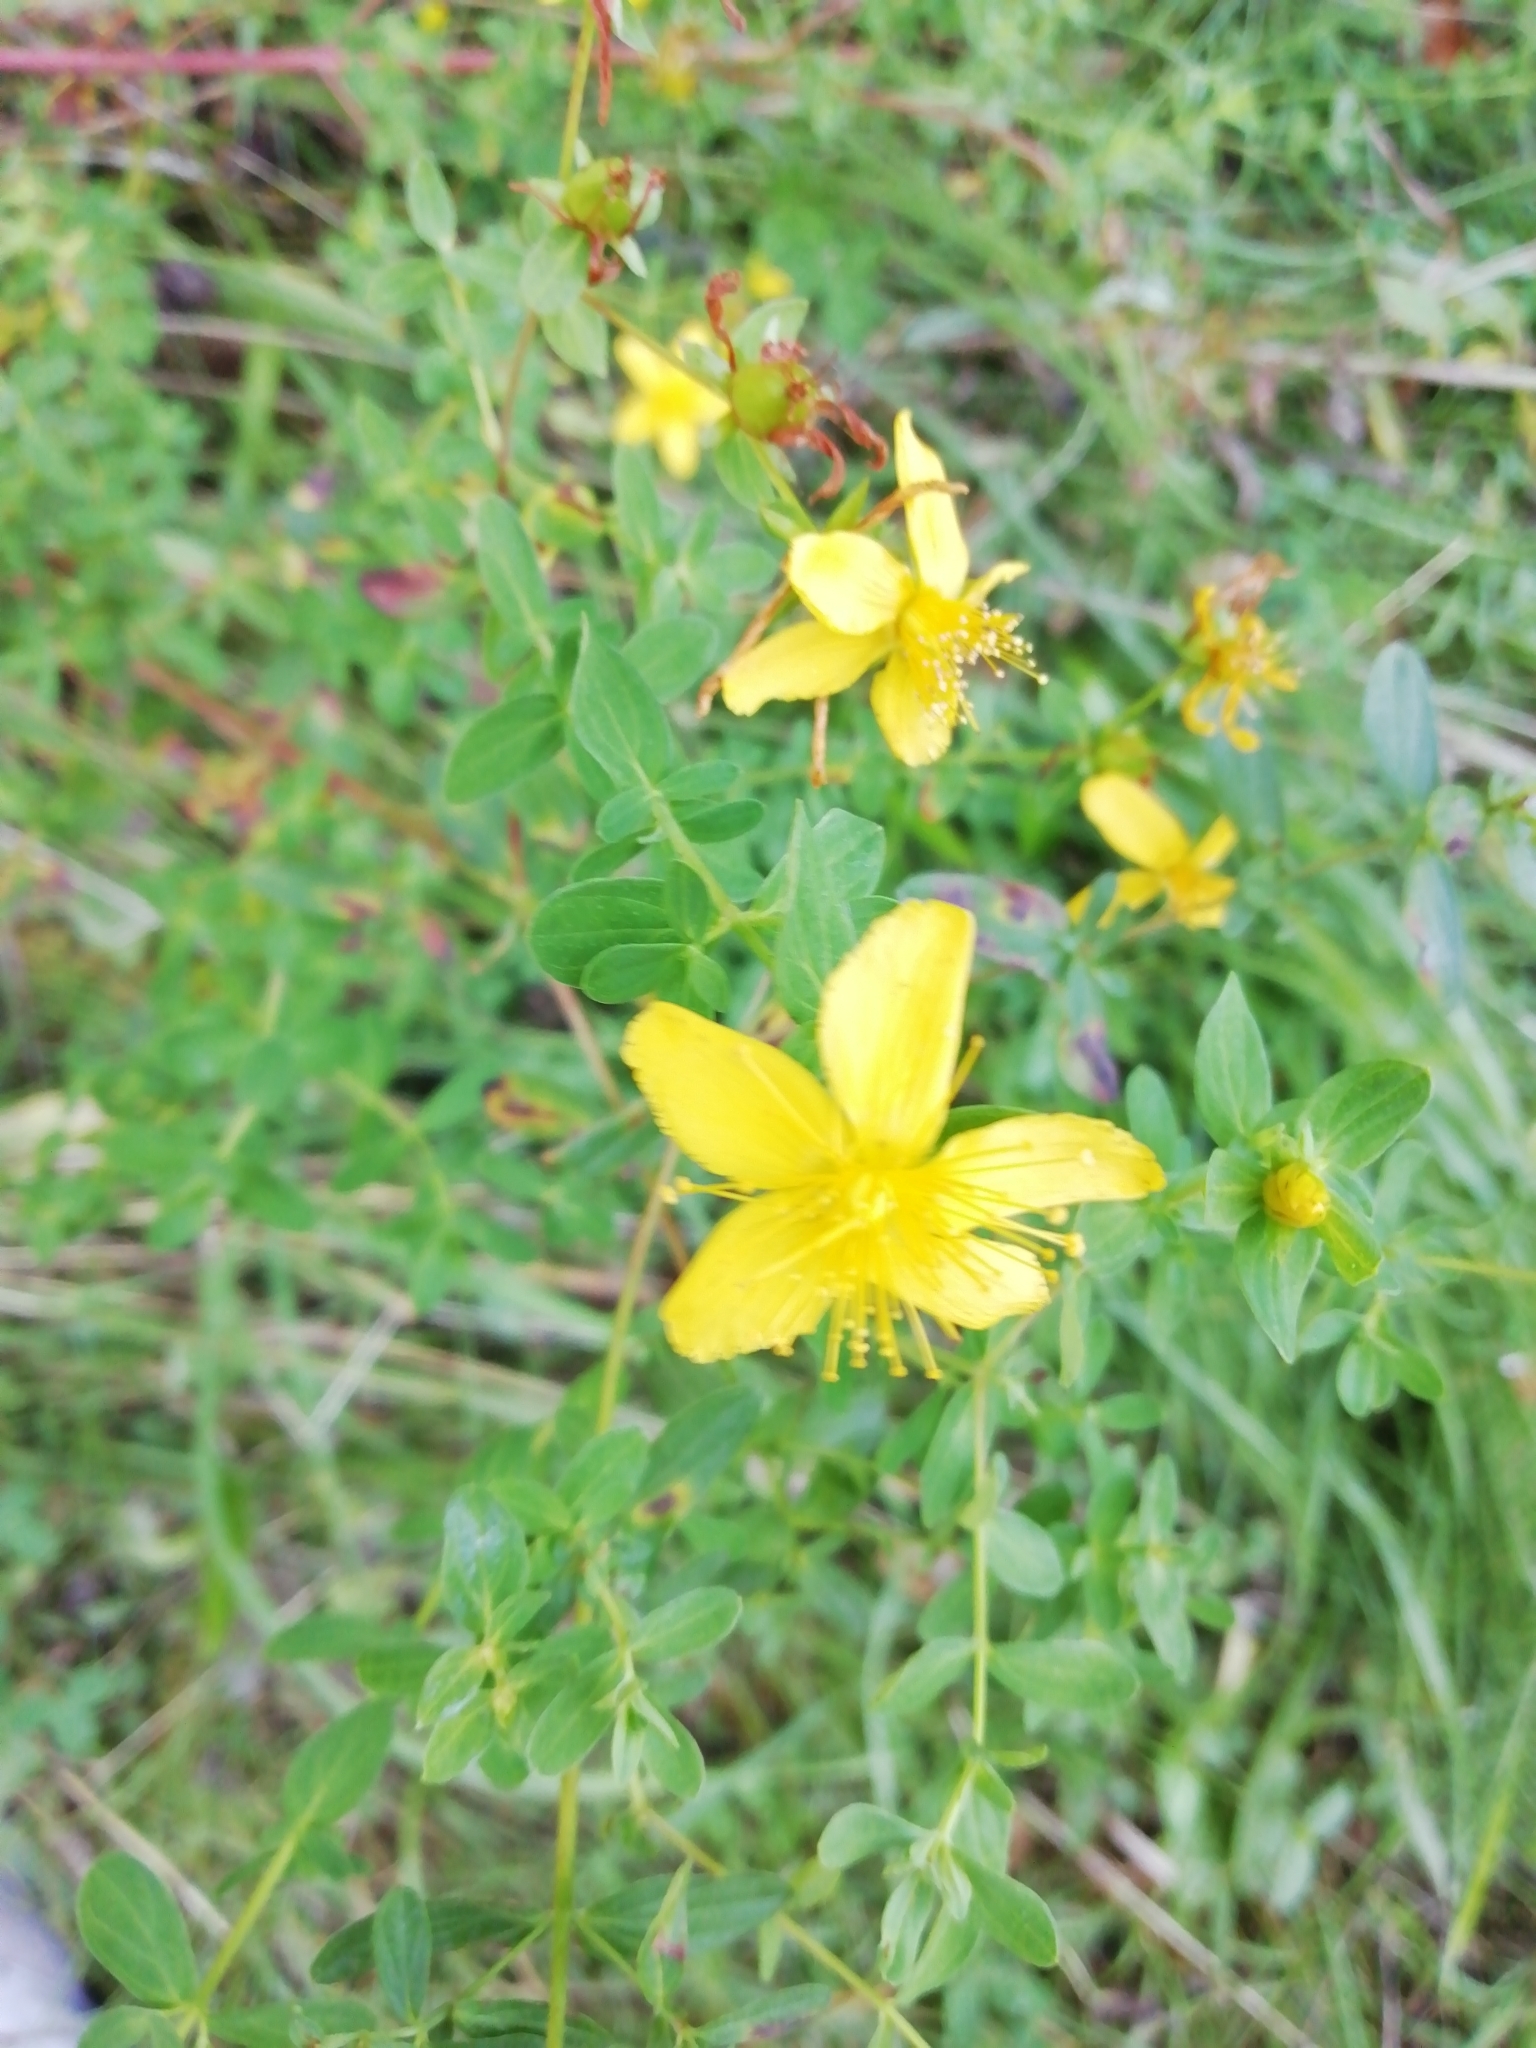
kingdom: Plantae
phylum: Tracheophyta
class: Magnoliopsida
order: Malpighiales
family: Hypericaceae
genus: Hypericum
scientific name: Hypericum perforatum
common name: Common st. johnswort
